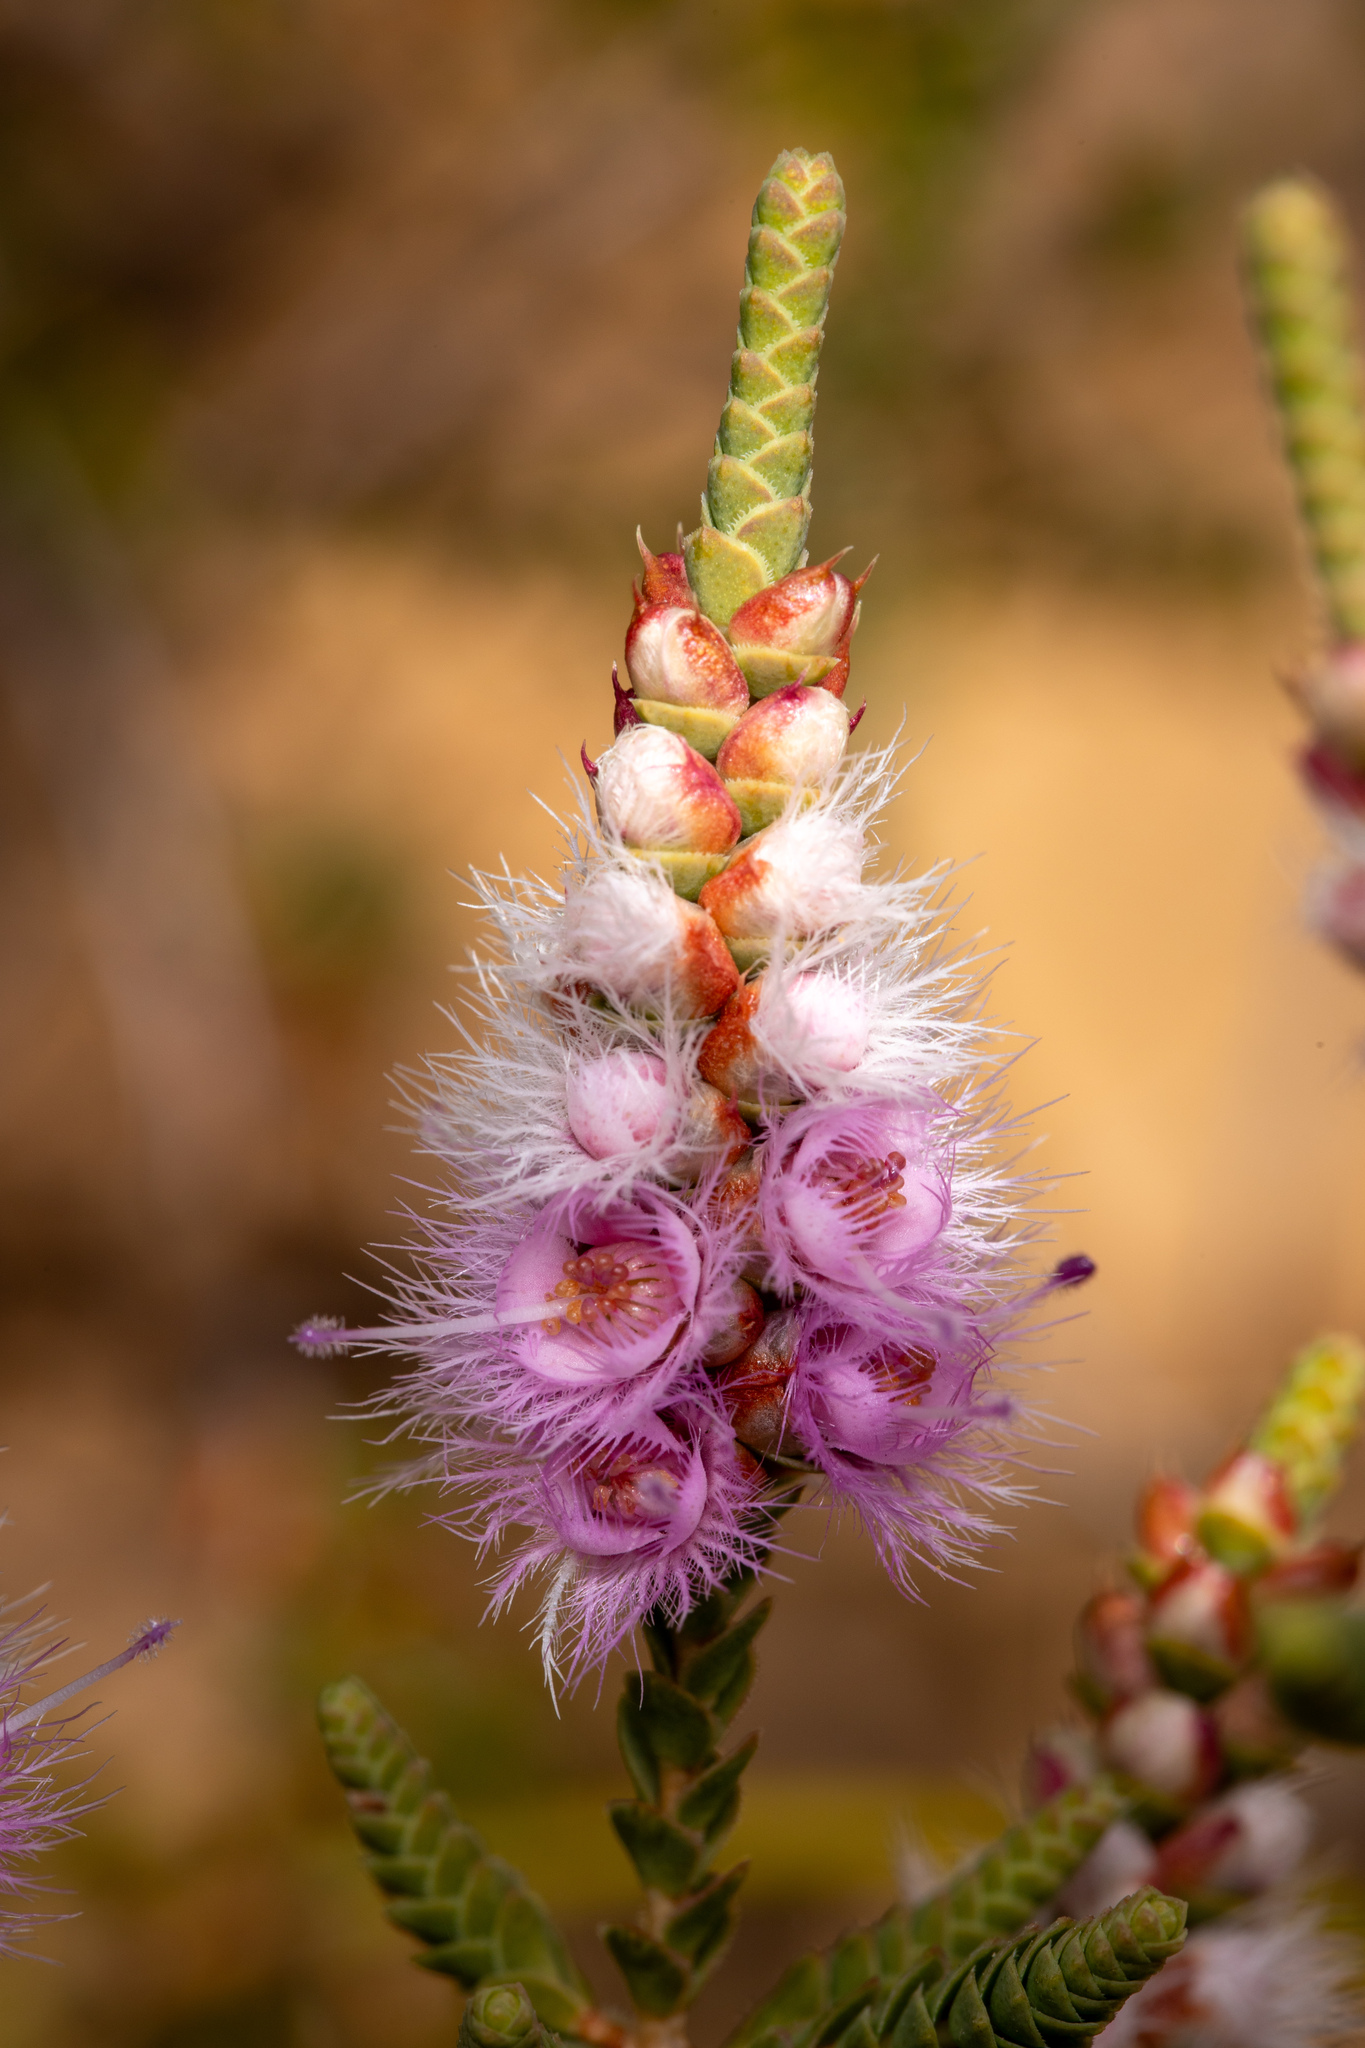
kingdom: Plantae
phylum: Tracheophyta
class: Magnoliopsida
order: Myrtales
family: Myrtaceae
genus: Verticordia
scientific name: Verticordia spicata
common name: Spike feather-flower
